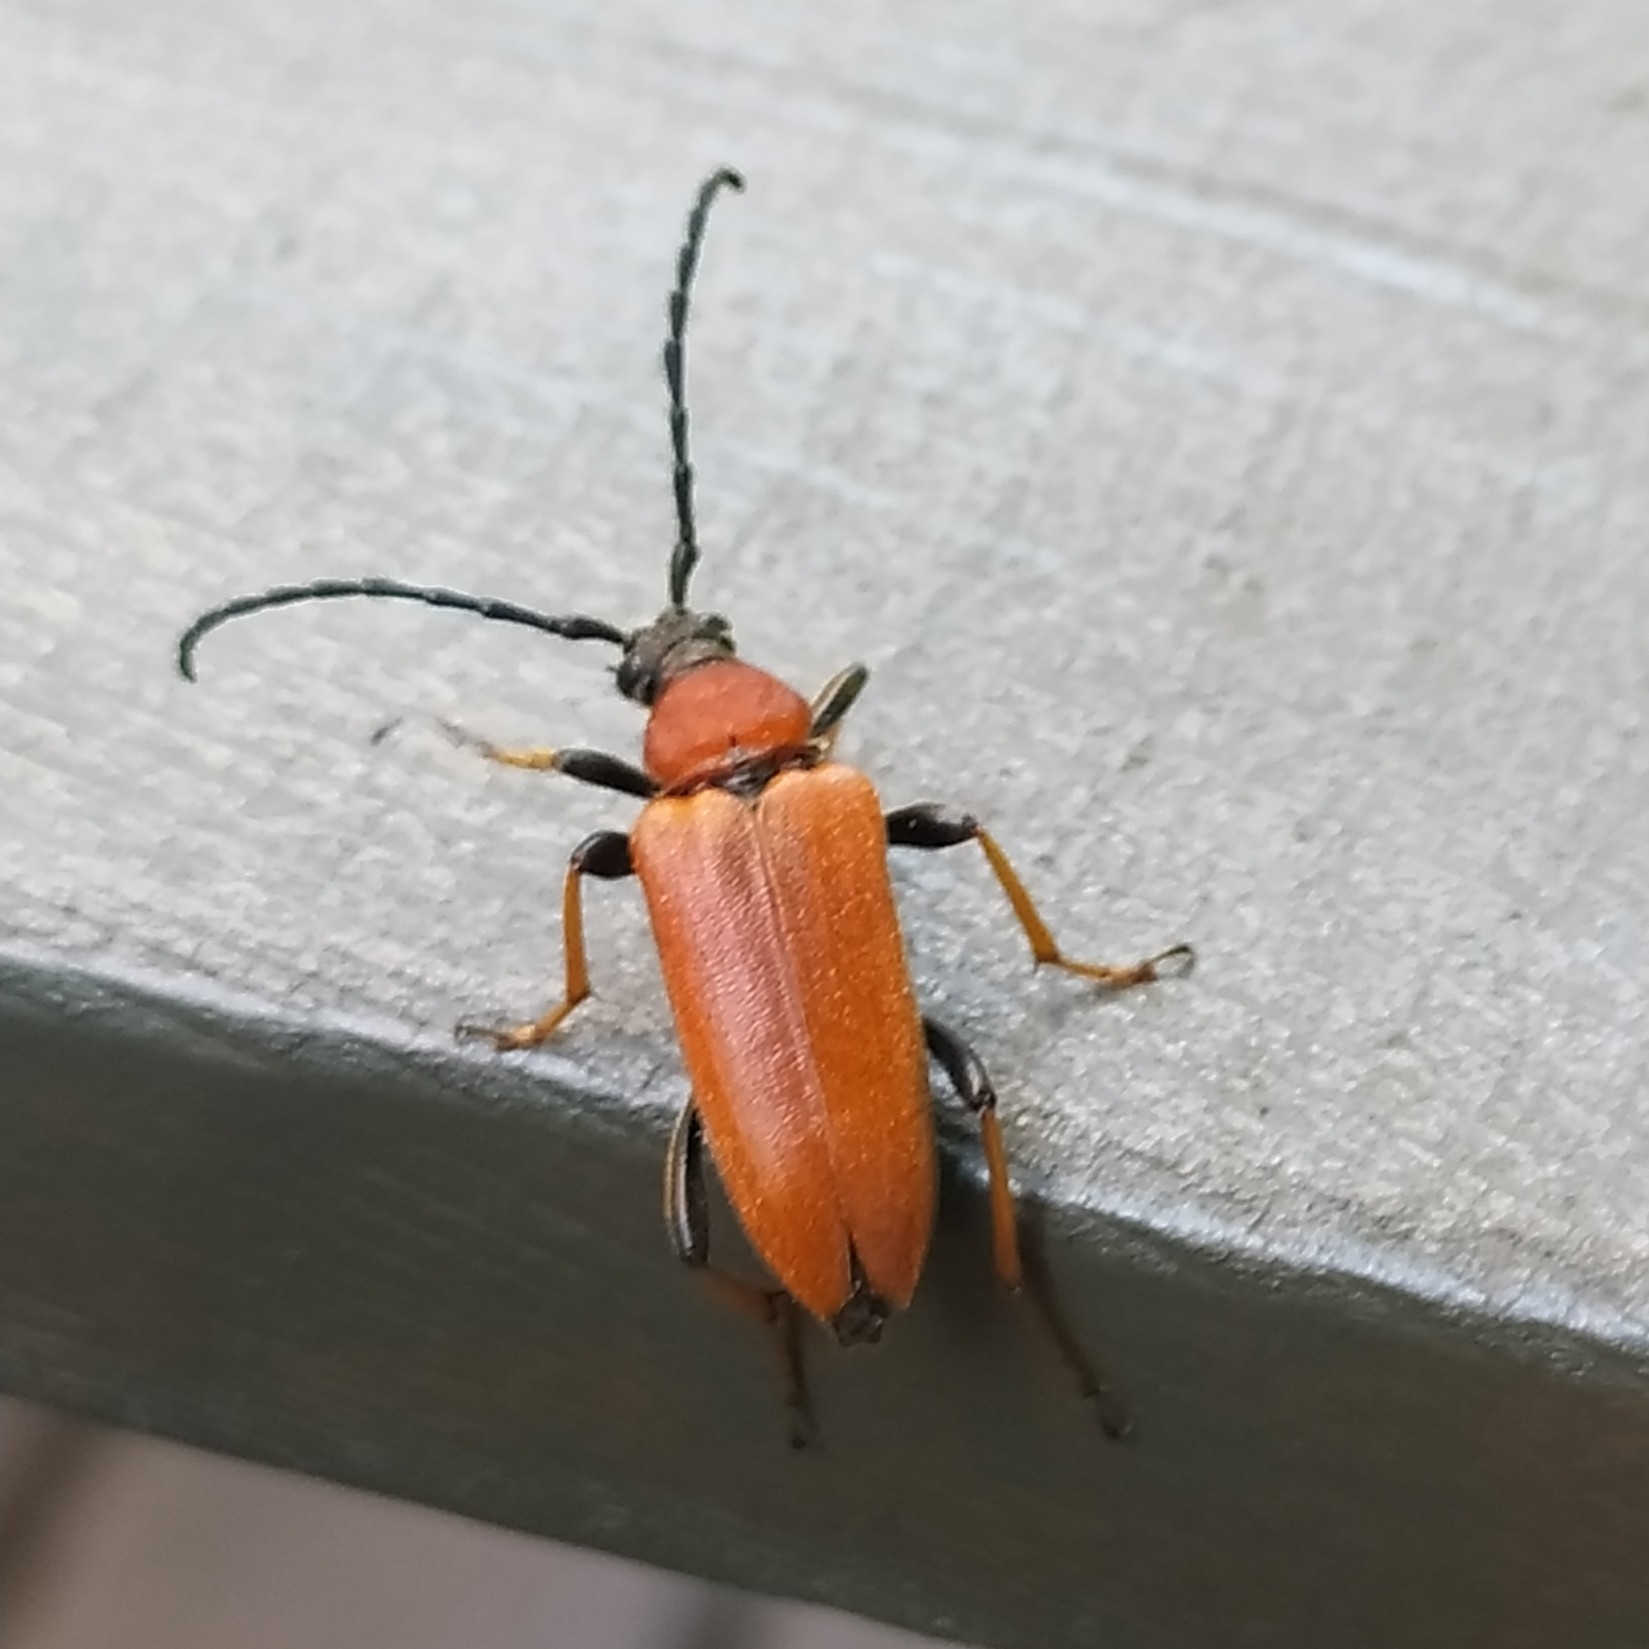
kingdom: Animalia
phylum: Arthropoda
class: Insecta
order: Coleoptera
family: Cerambycidae
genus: Stictoleptura
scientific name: Stictoleptura rubra
